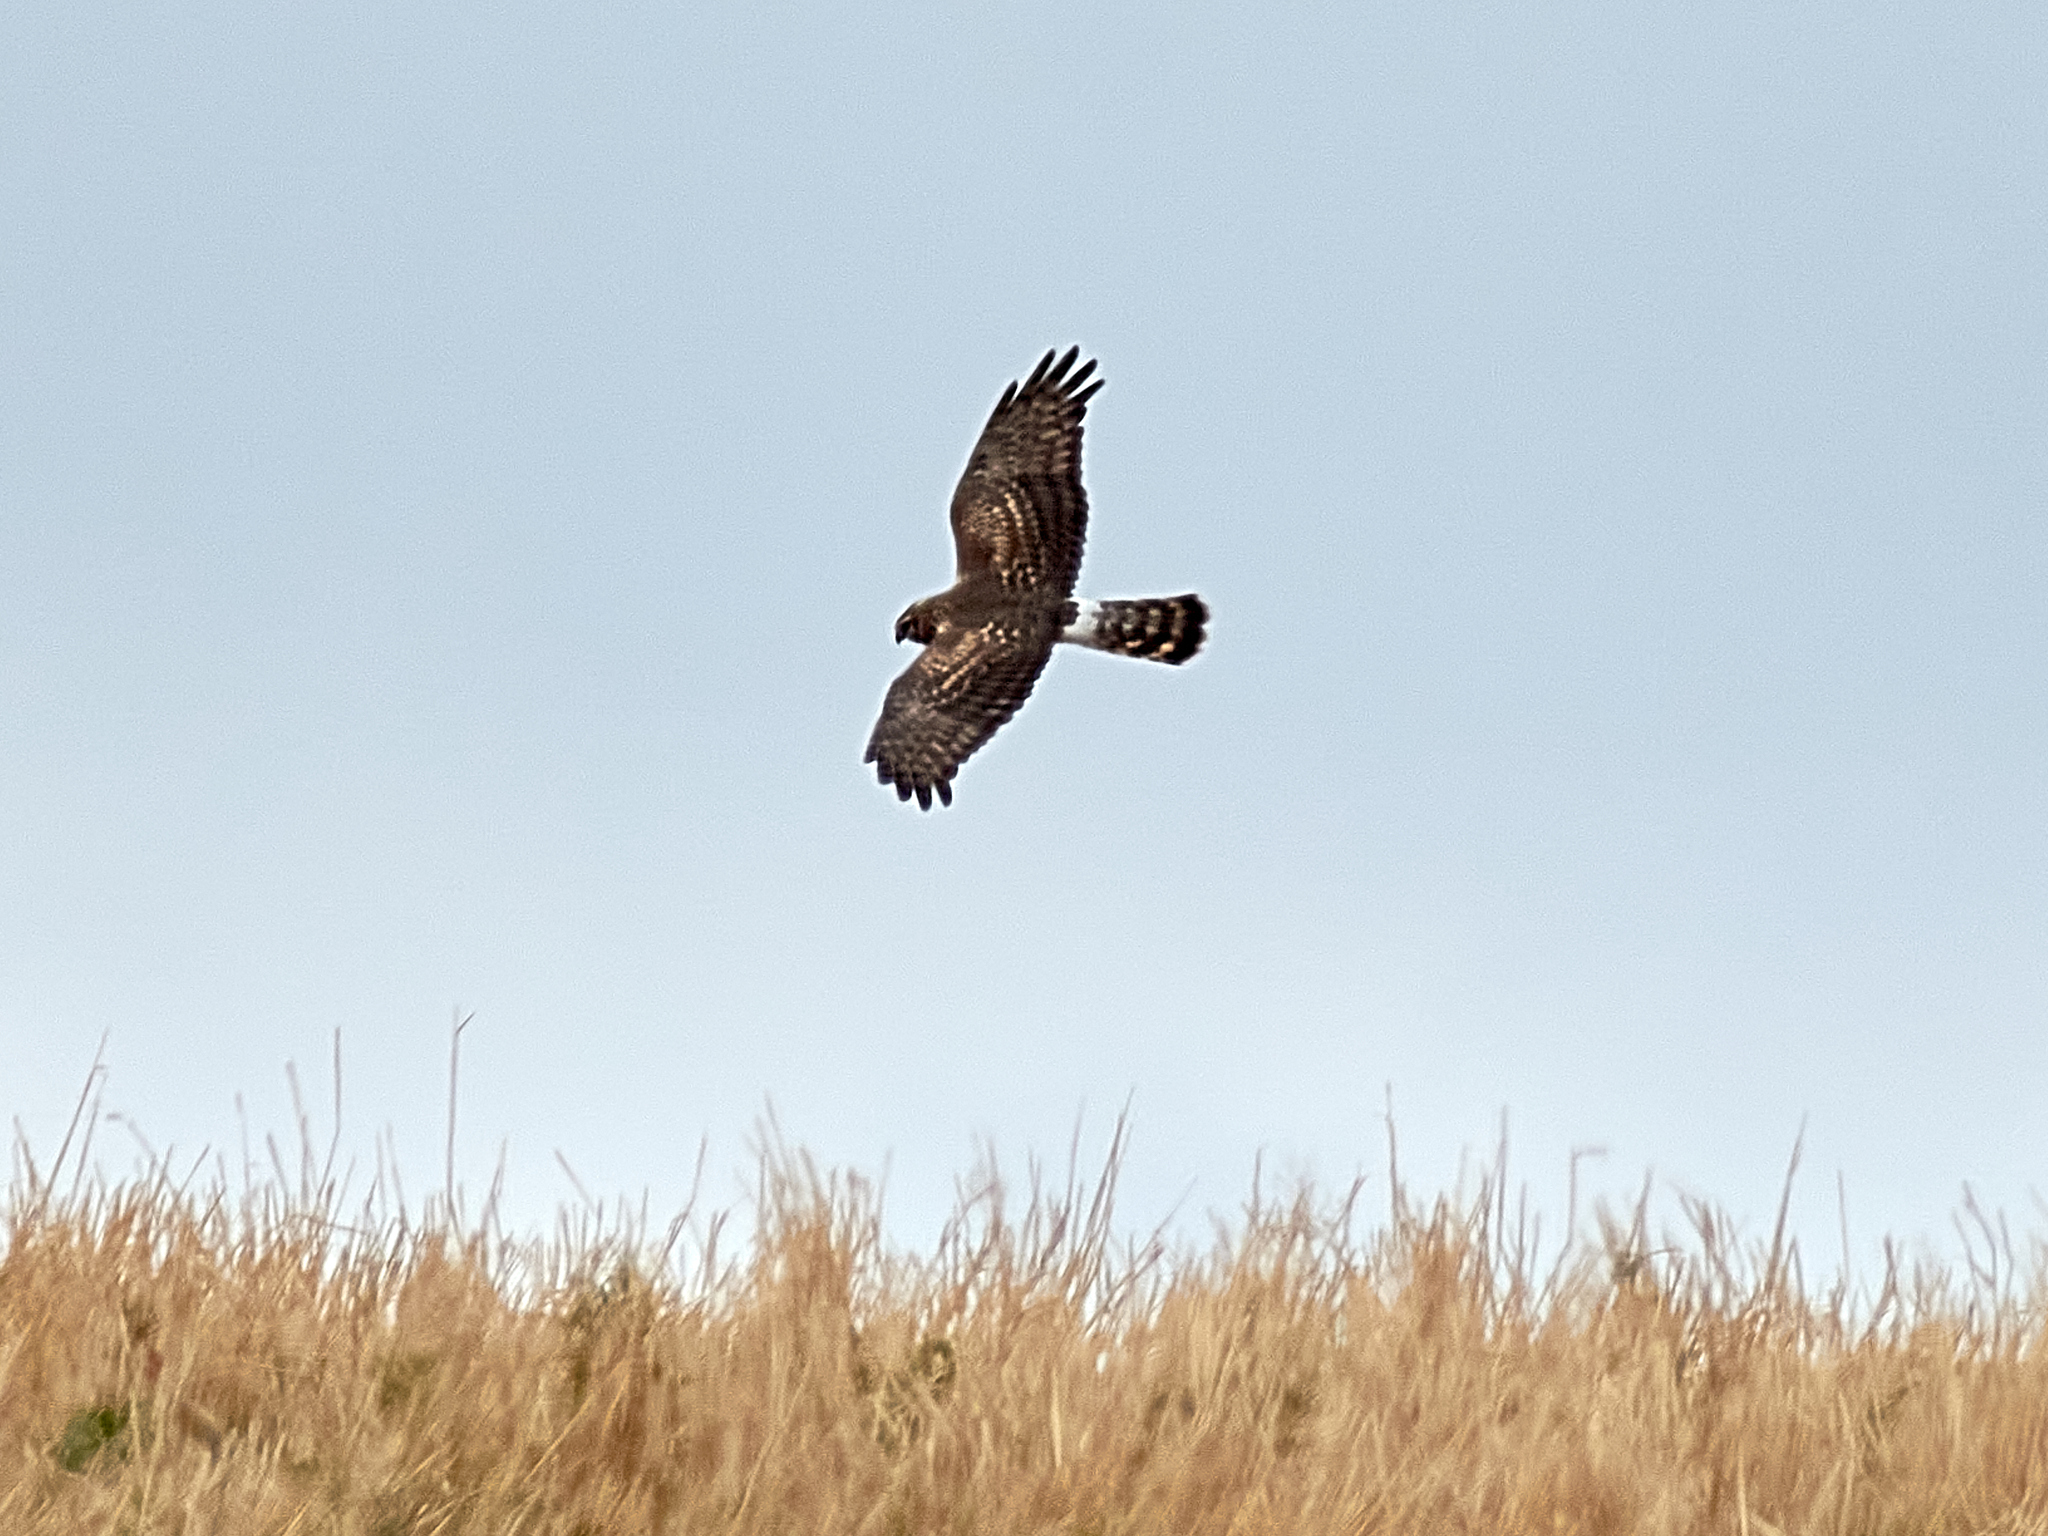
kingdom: Animalia
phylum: Chordata
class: Aves
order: Accipitriformes
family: Accipitridae
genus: Circus
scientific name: Circus cyaneus
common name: Hen harrier
